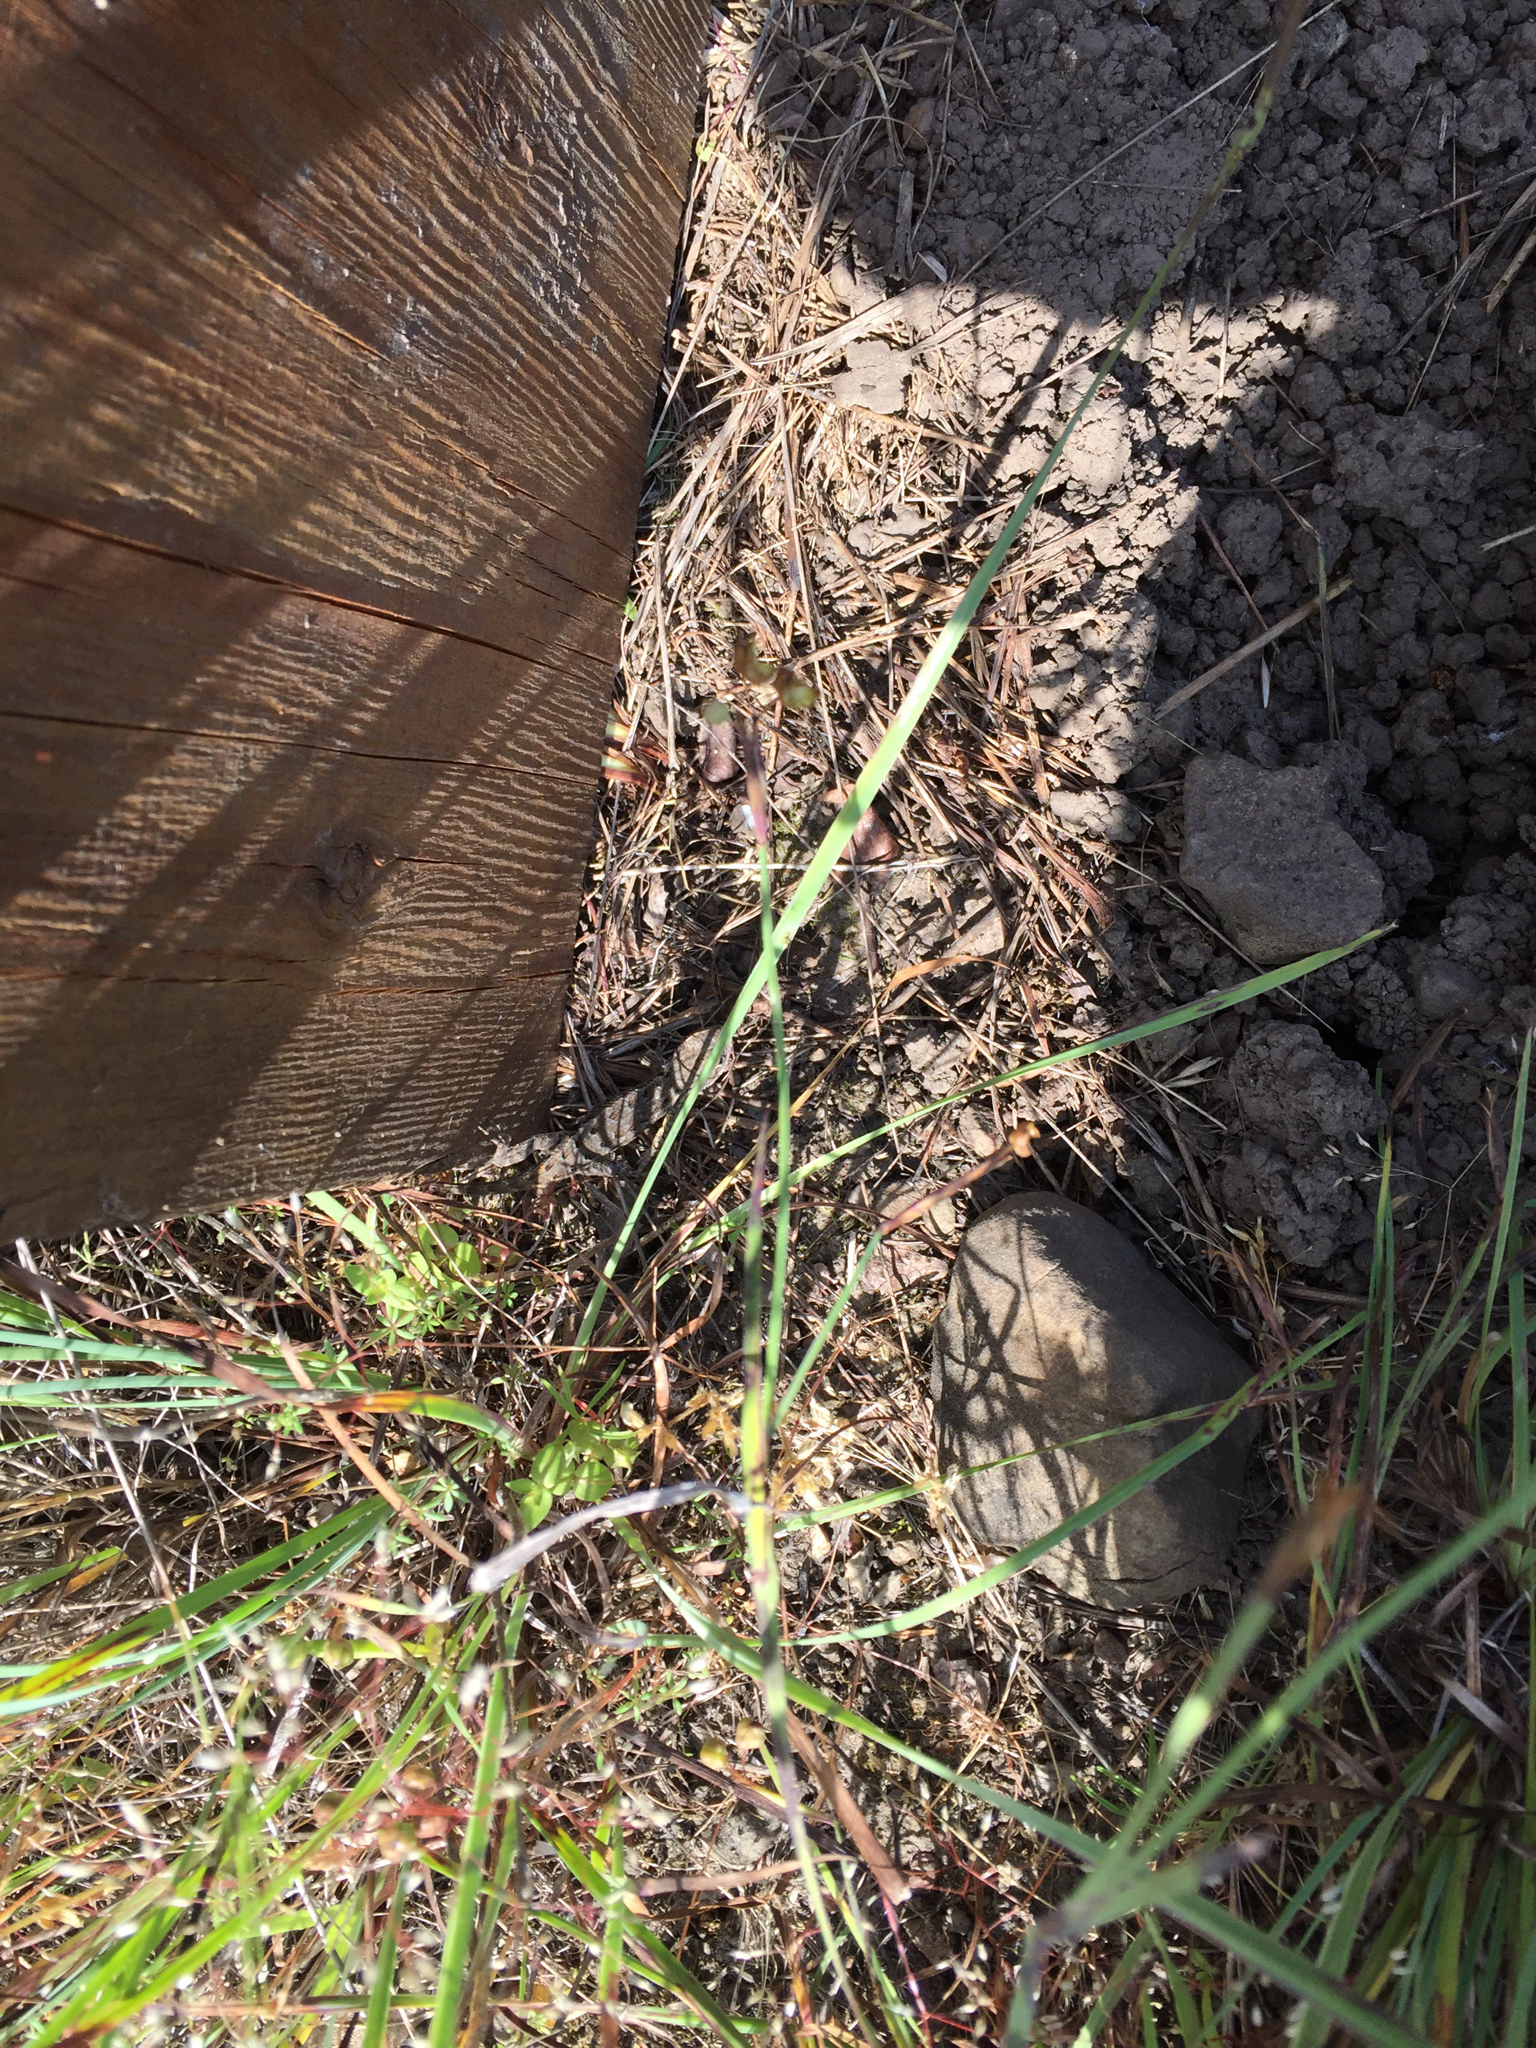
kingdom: Animalia
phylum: Chordata
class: Squamata
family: Phrynosomatidae
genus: Sceloporus
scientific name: Sceloporus occidentalis
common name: Western fence lizard
